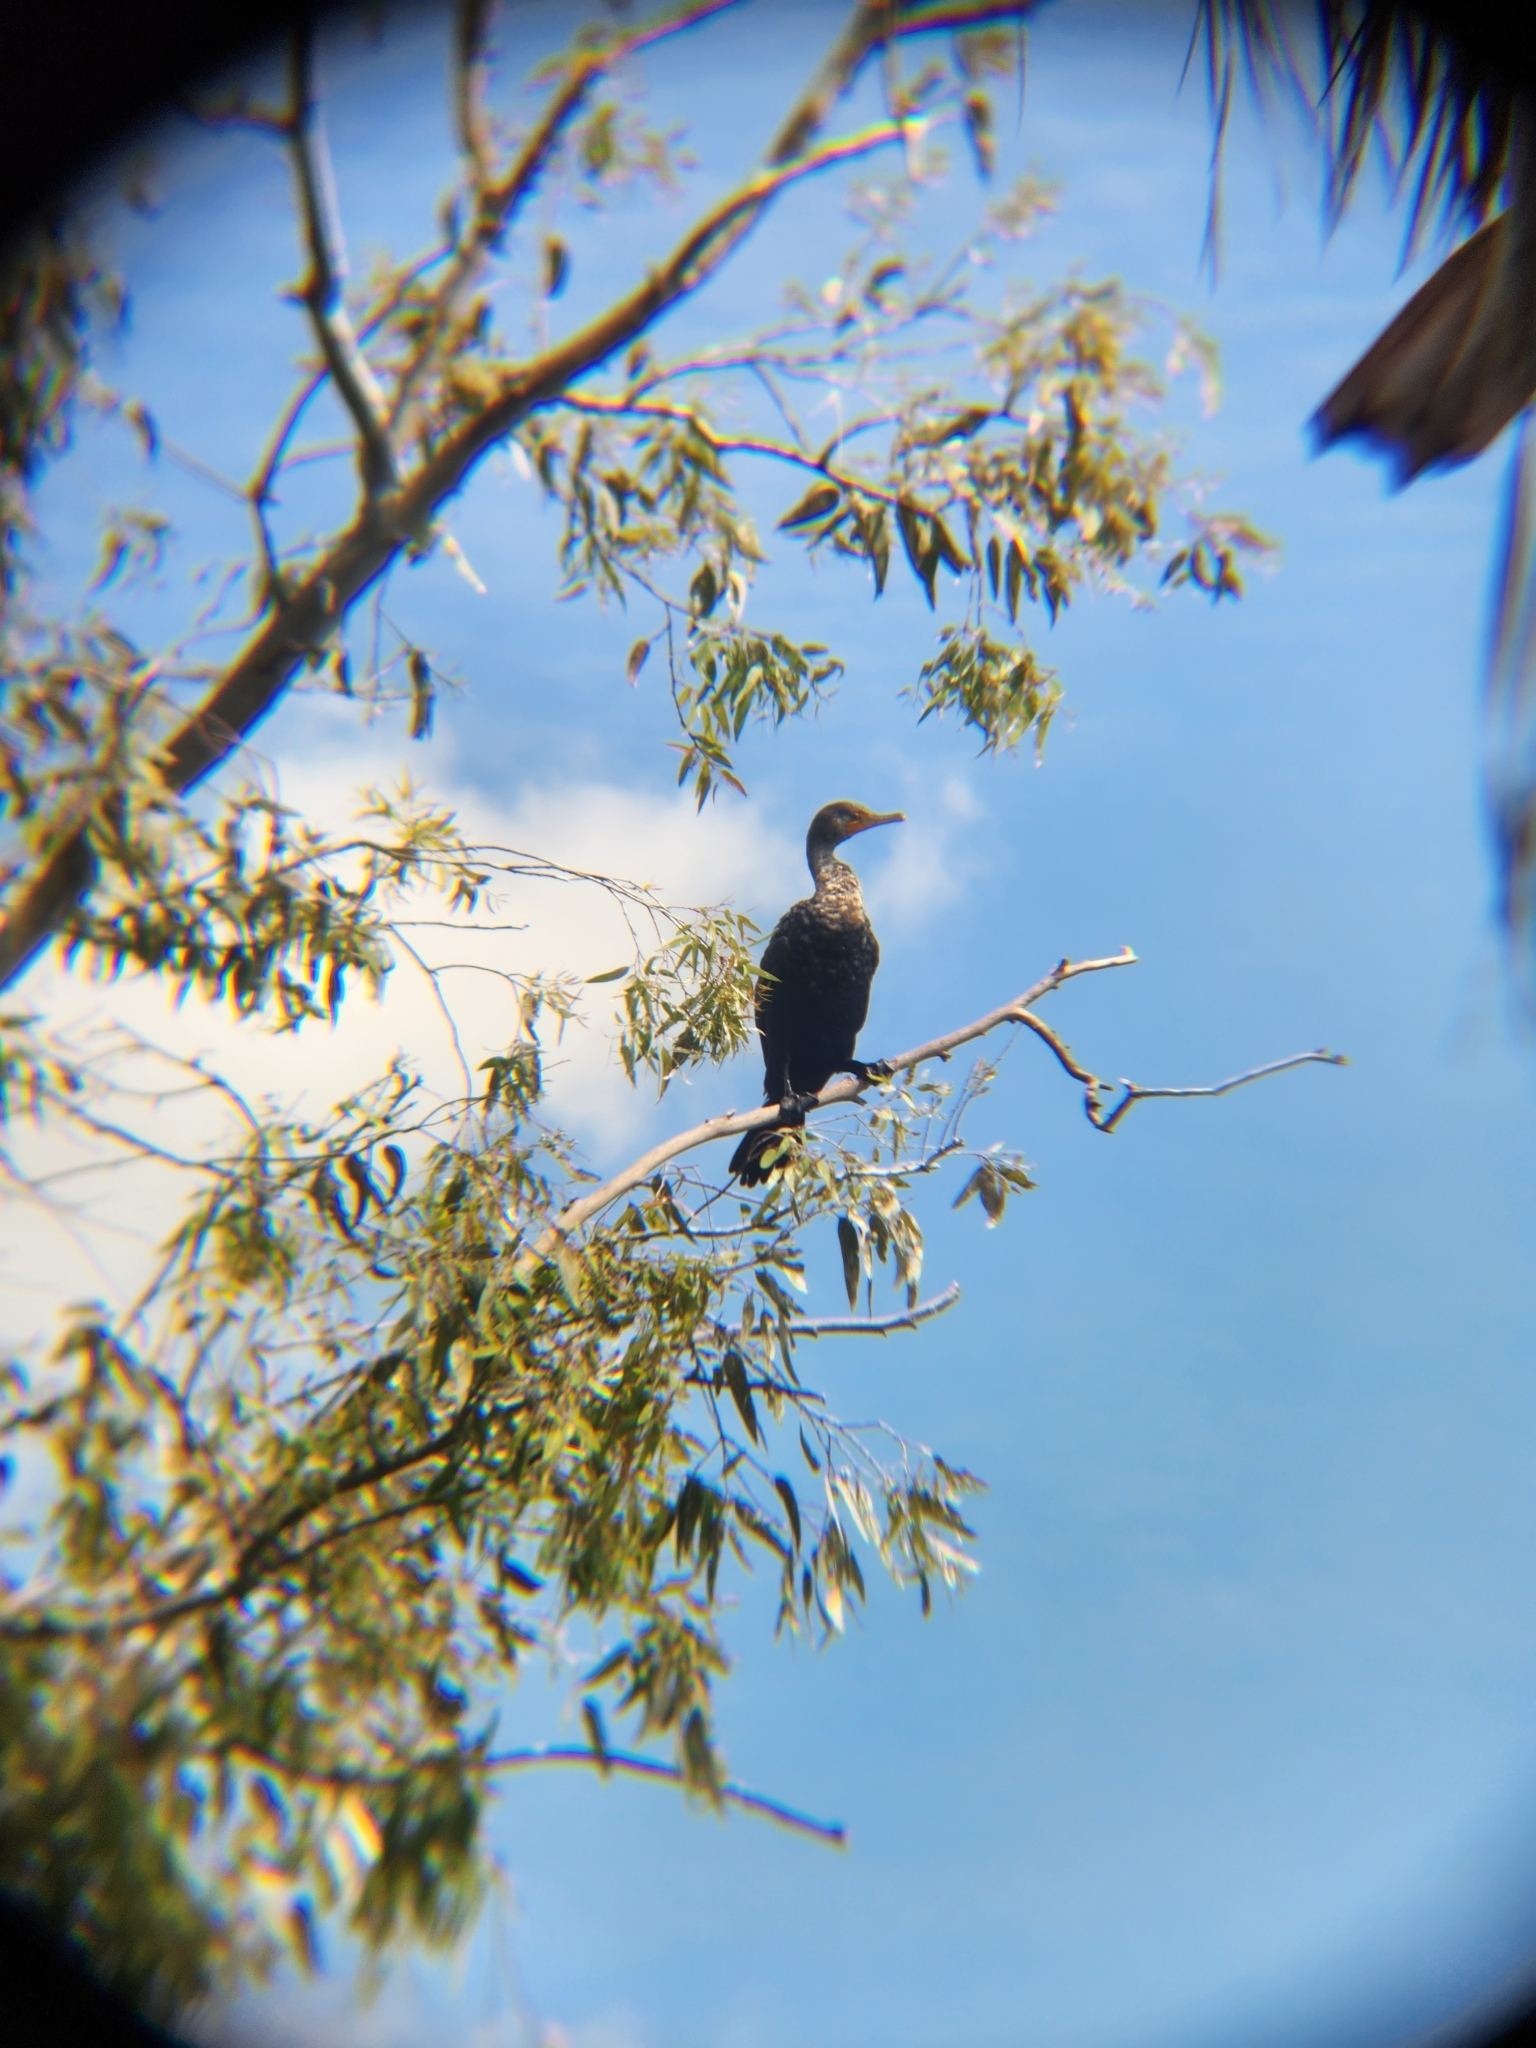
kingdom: Animalia
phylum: Chordata
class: Aves
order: Suliformes
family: Phalacrocoracidae
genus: Phalacrocorax
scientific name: Phalacrocorax auritus
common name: Double-crested cormorant
